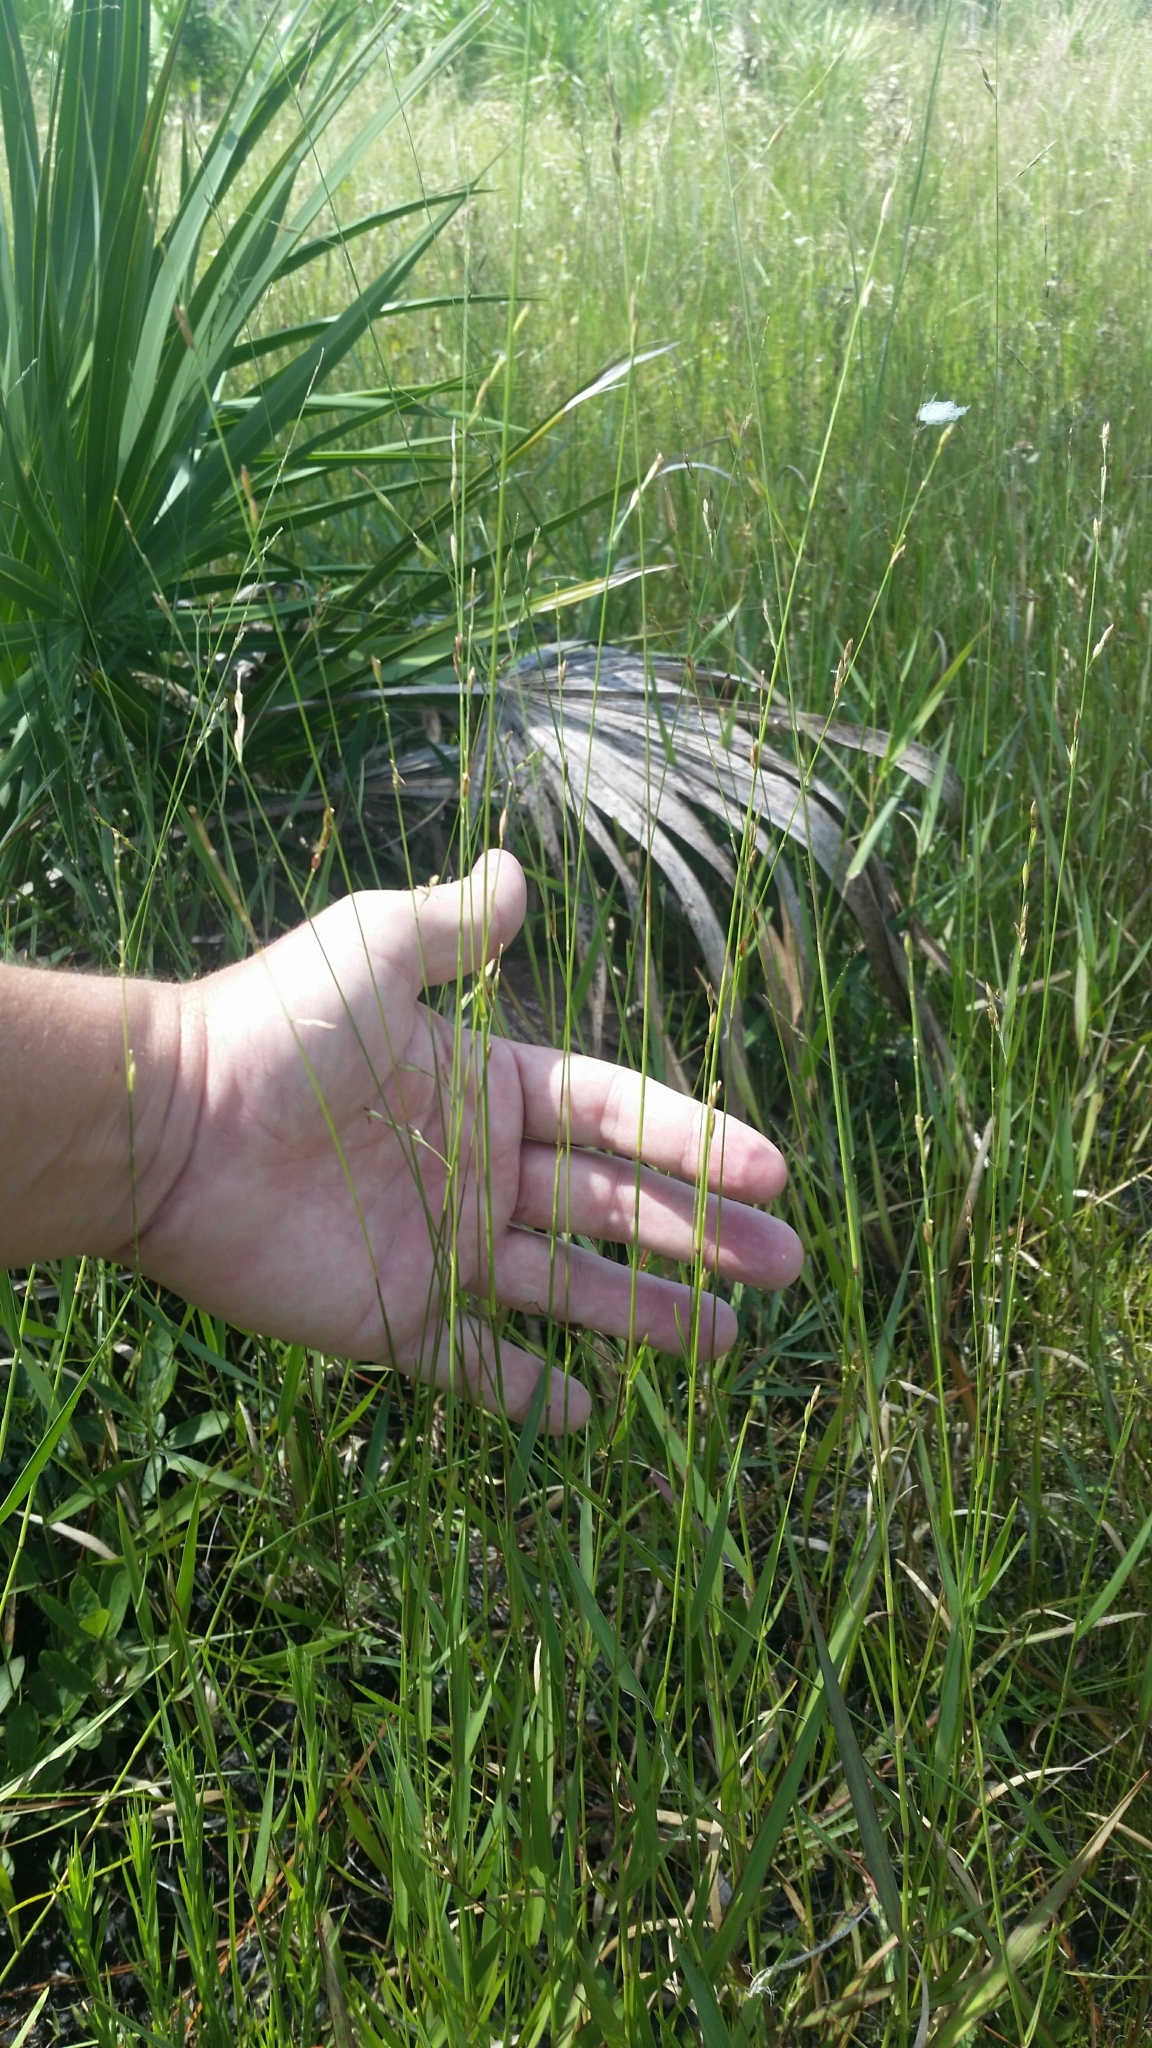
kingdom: Plantae
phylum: Tracheophyta
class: Liliopsida
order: Poales
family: Poaceae
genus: Amphicarpum
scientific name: Amphicarpum muehlenbergianum
